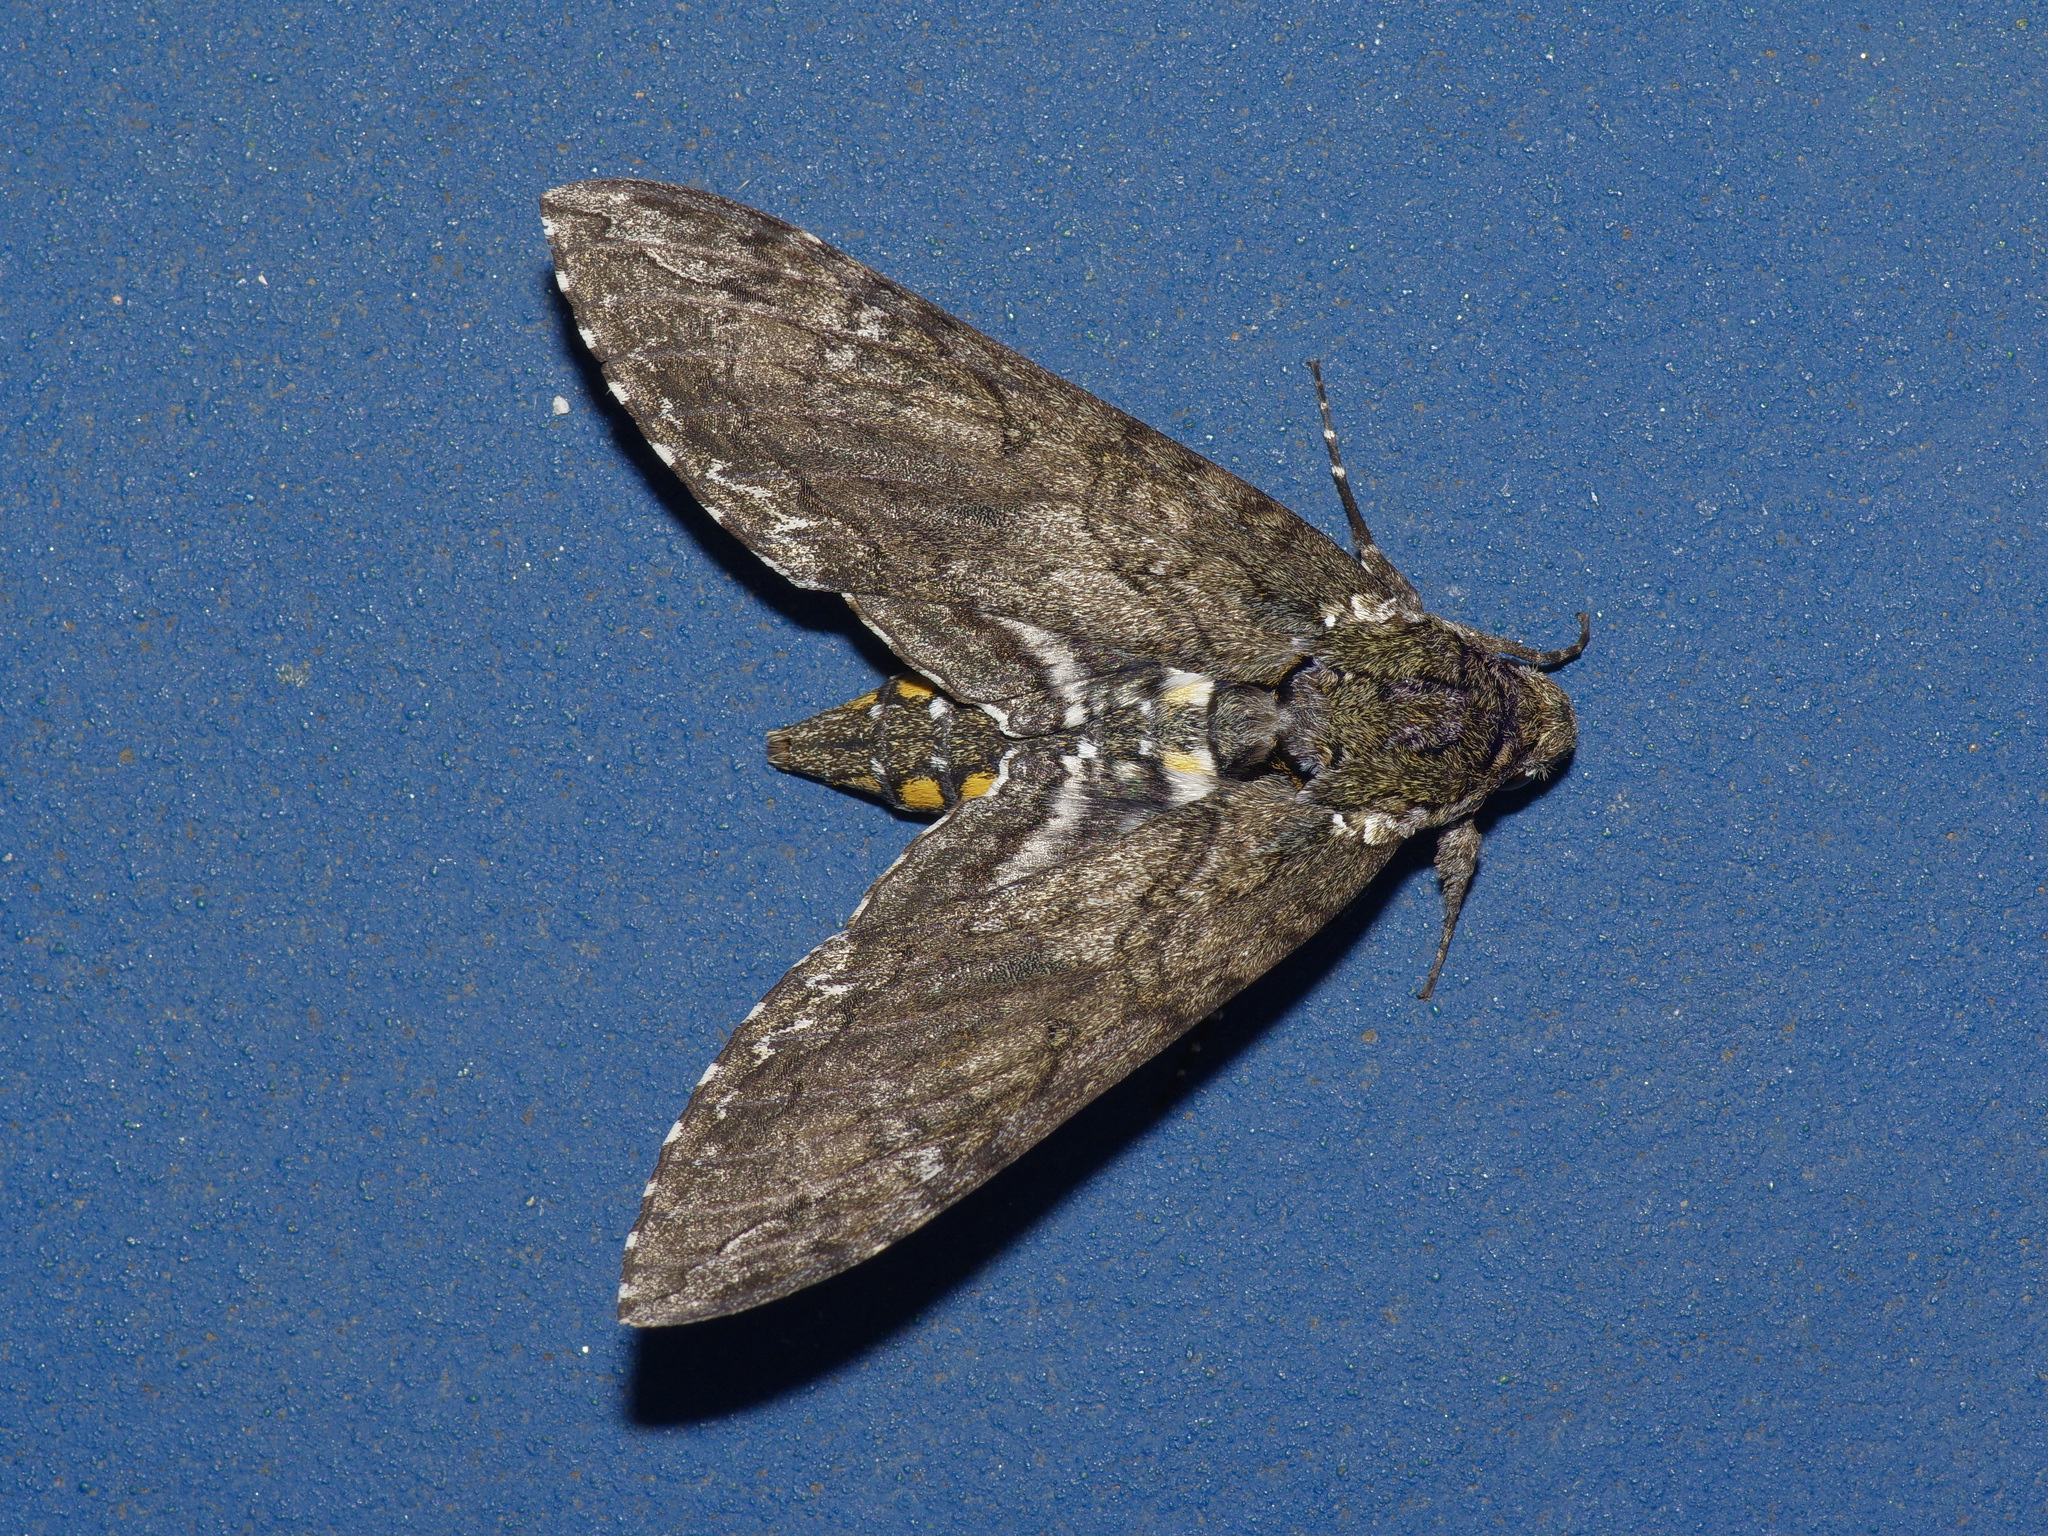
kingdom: Animalia
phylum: Arthropoda
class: Insecta
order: Lepidoptera
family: Sphingidae
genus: Manduca
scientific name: Manduca sexta
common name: Carolina sphinx
